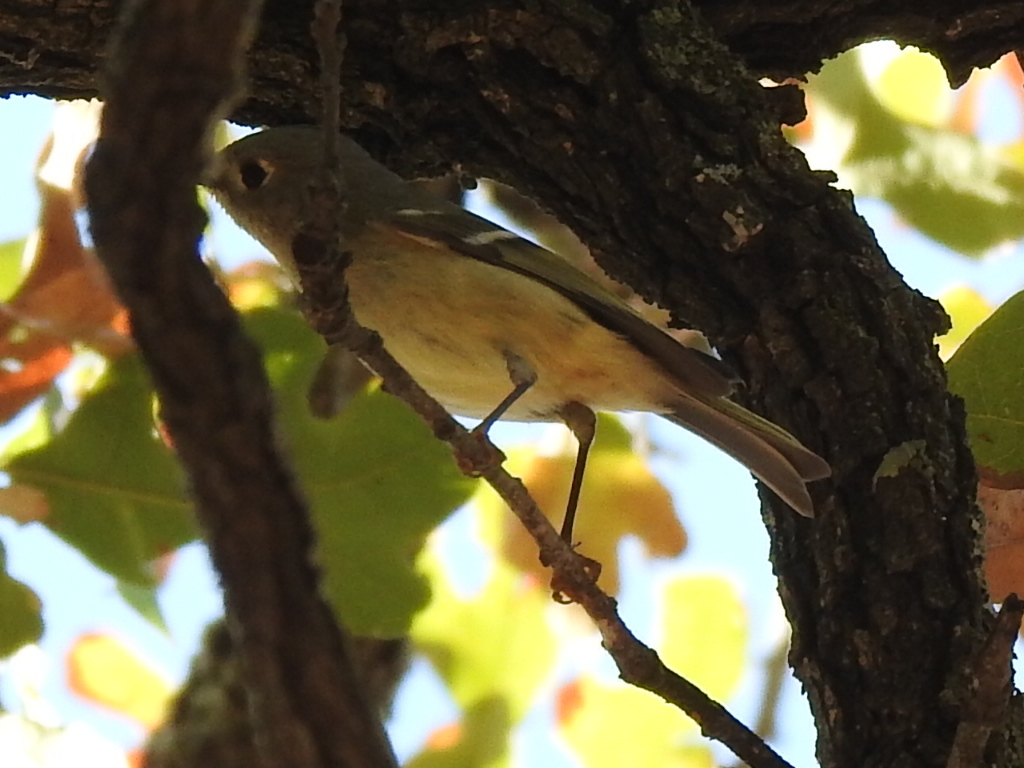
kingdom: Animalia
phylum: Chordata
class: Aves
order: Passeriformes
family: Regulidae
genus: Regulus
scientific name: Regulus calendula
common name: Ruby-crowned kinglet
